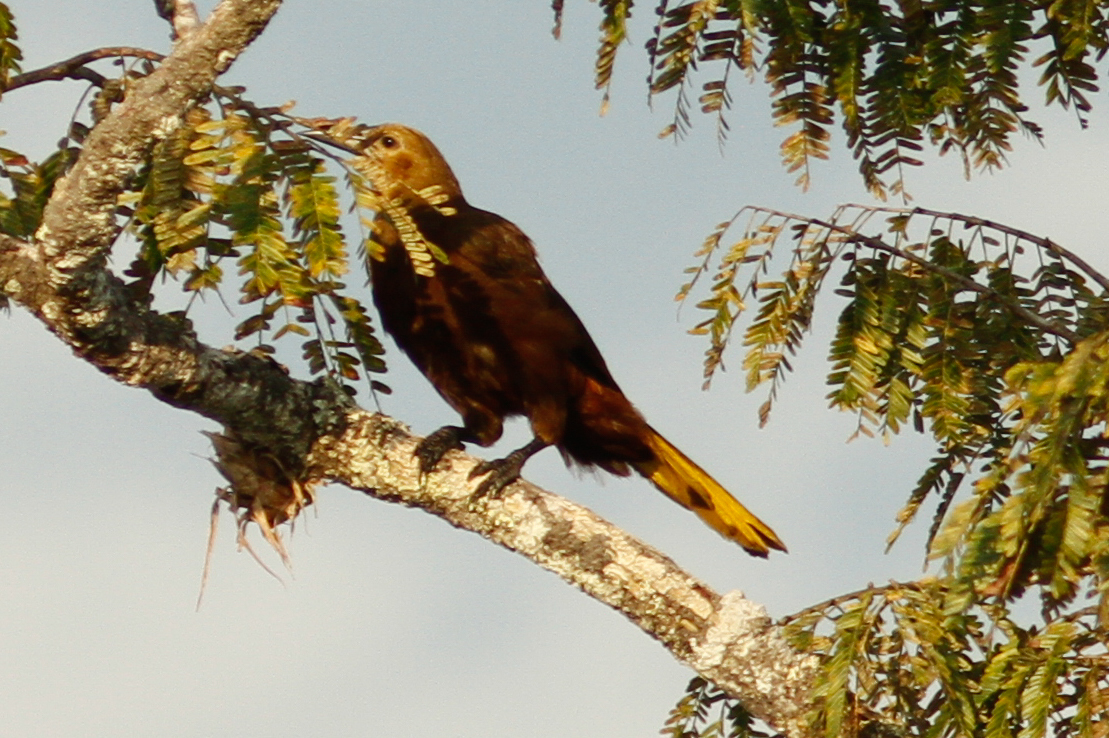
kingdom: Animalia
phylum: Chordata
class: Aves
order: Passeriformes
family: Icteridae
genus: Psarocolius
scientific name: Psarocolius angustifrons
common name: Russet-backed oropendola
